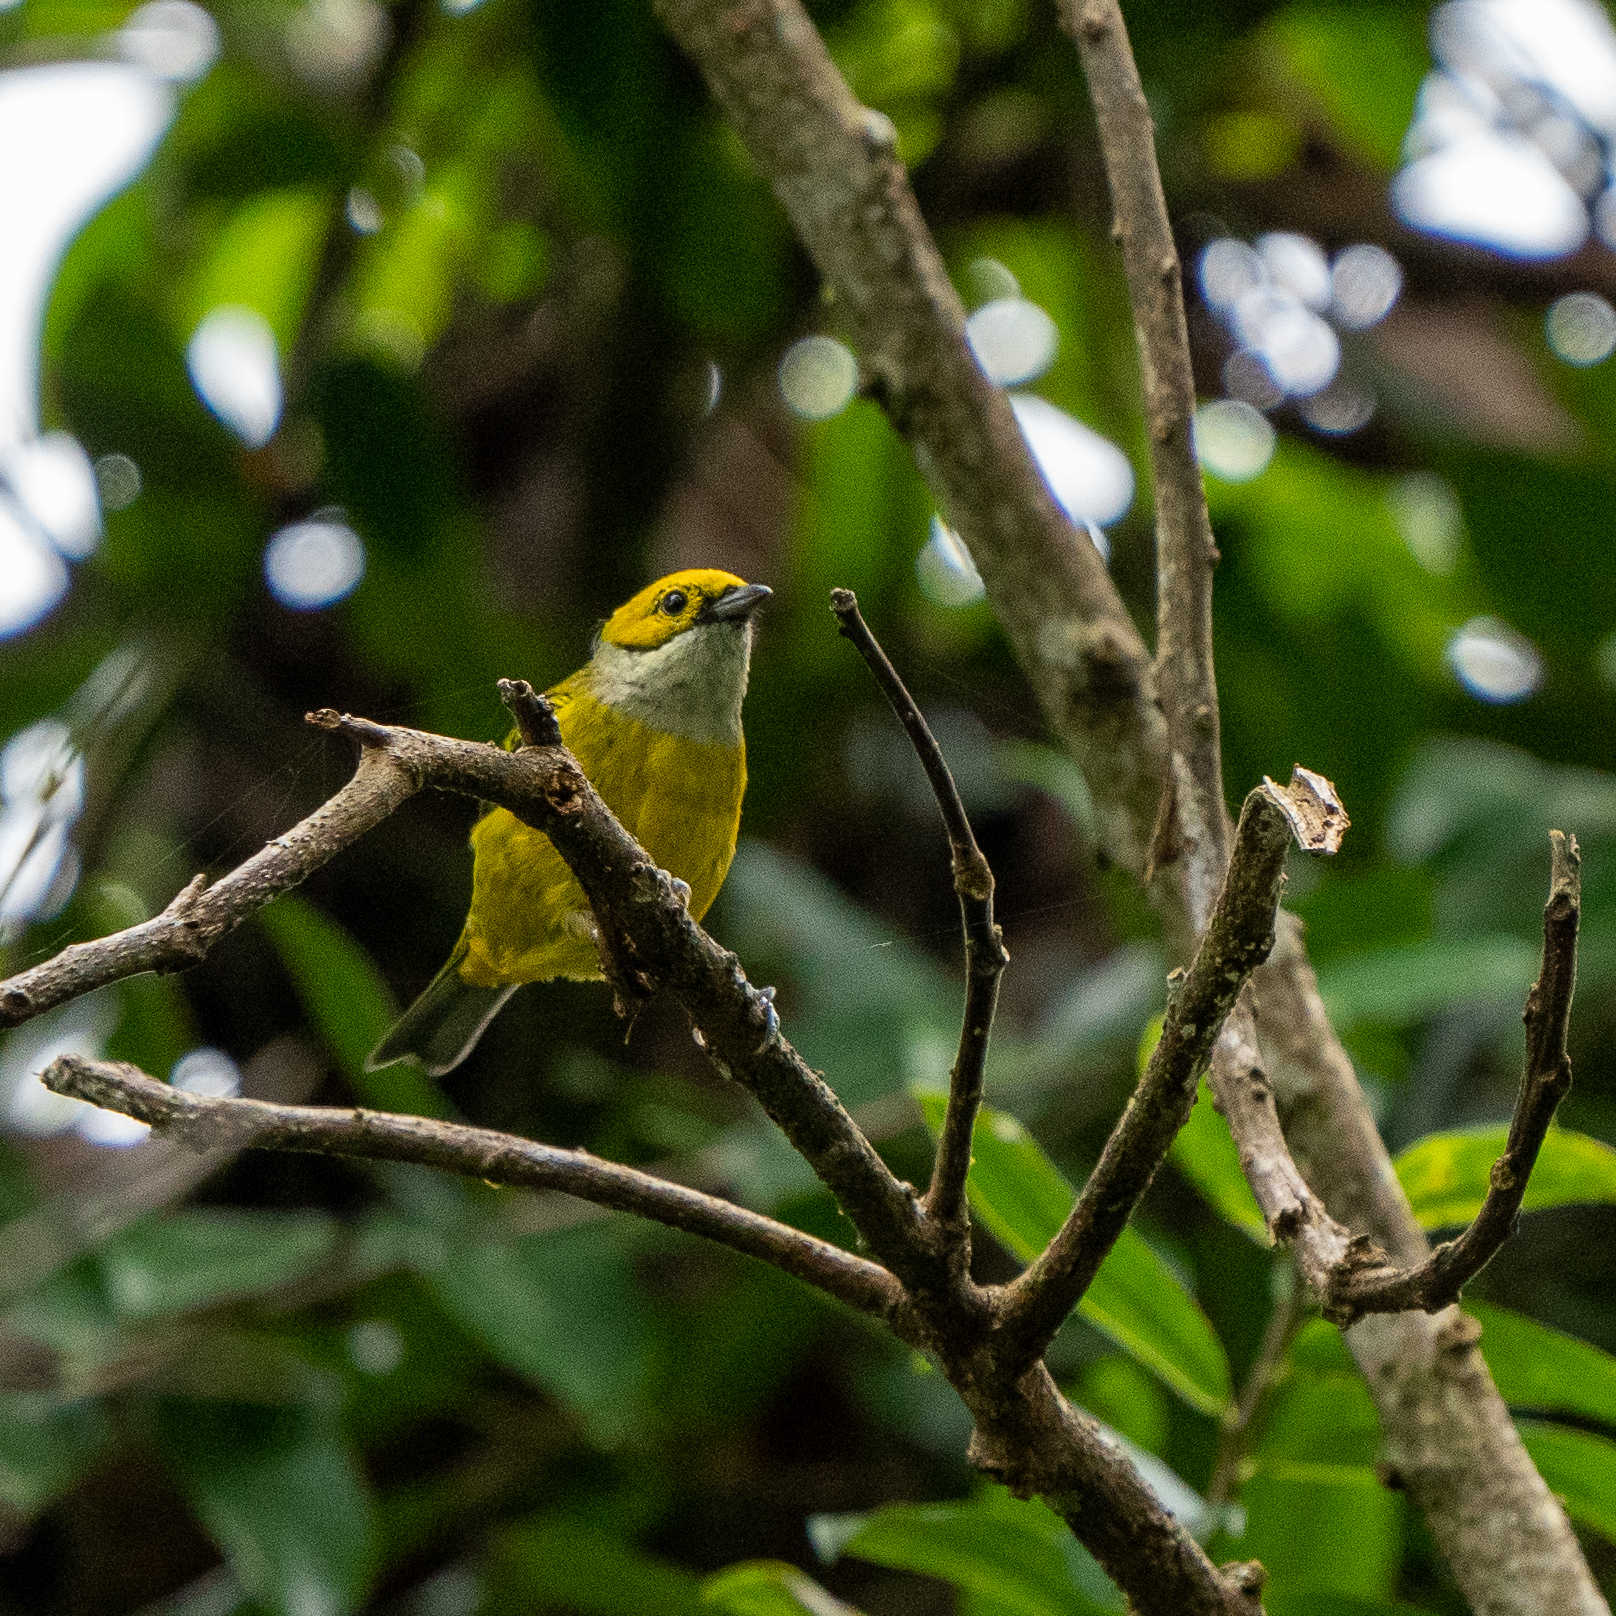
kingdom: Animalia
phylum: Chordata
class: Aves
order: Passeriformes
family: Thraupidae
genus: Tangara
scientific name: Tangara icterocephala
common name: Silver-throated tanager
